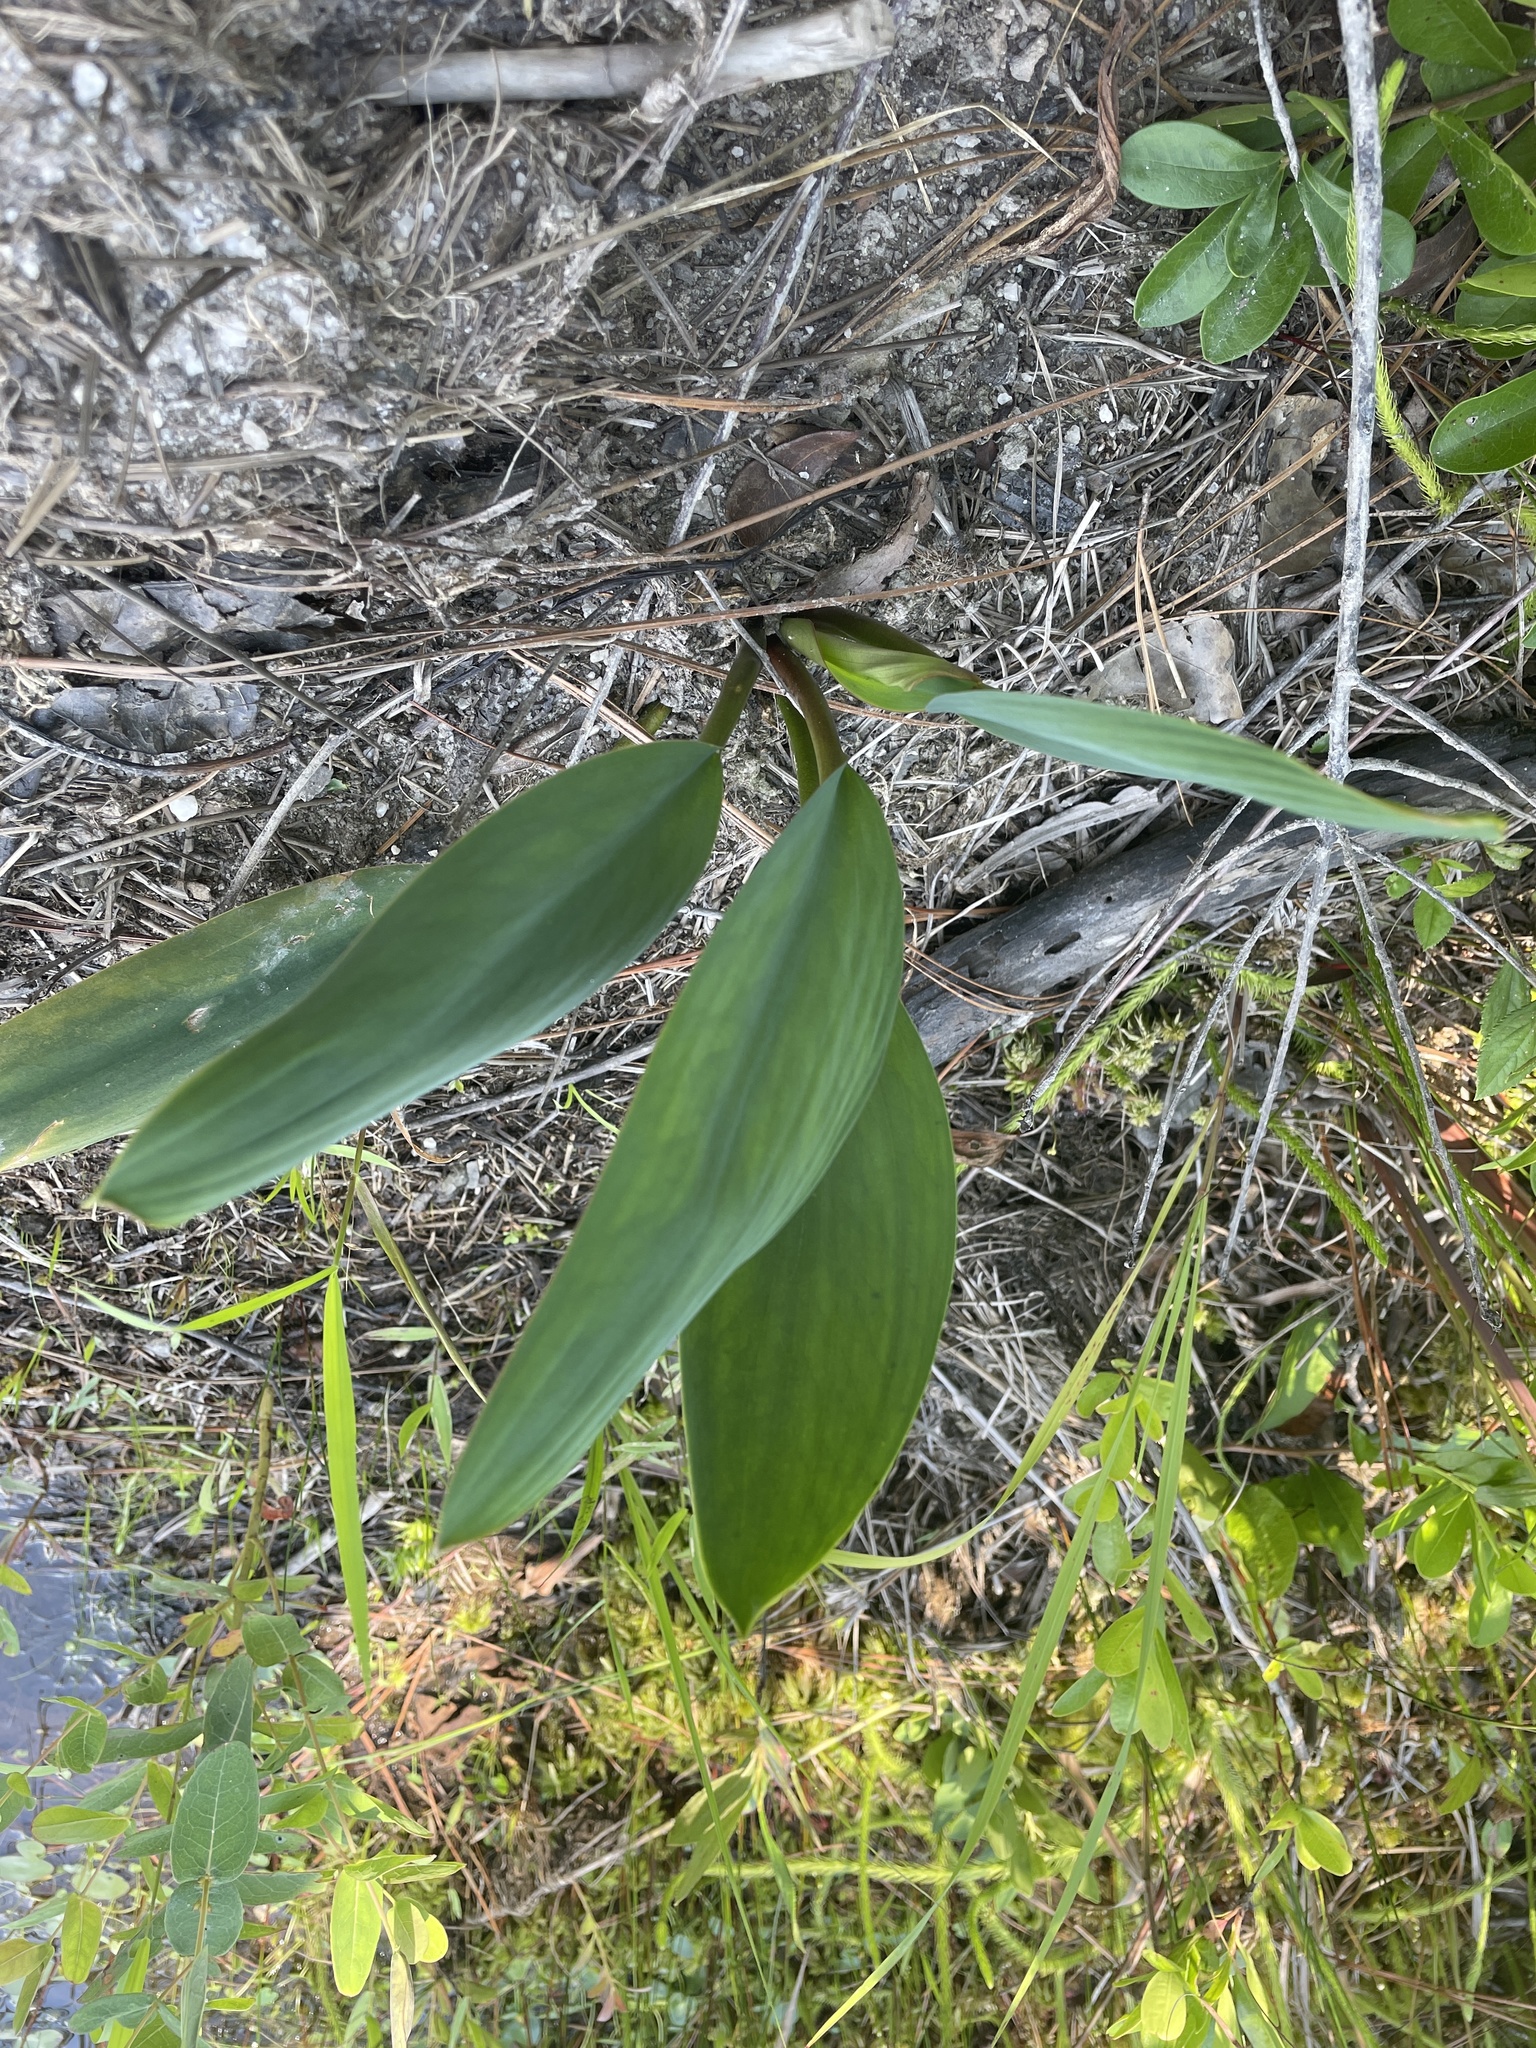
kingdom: Plantae
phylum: Tracheophyta
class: Liliopsida
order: Alismatales
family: Araceae
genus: Orontium
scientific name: Orontium aquaticum
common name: Golden-club
